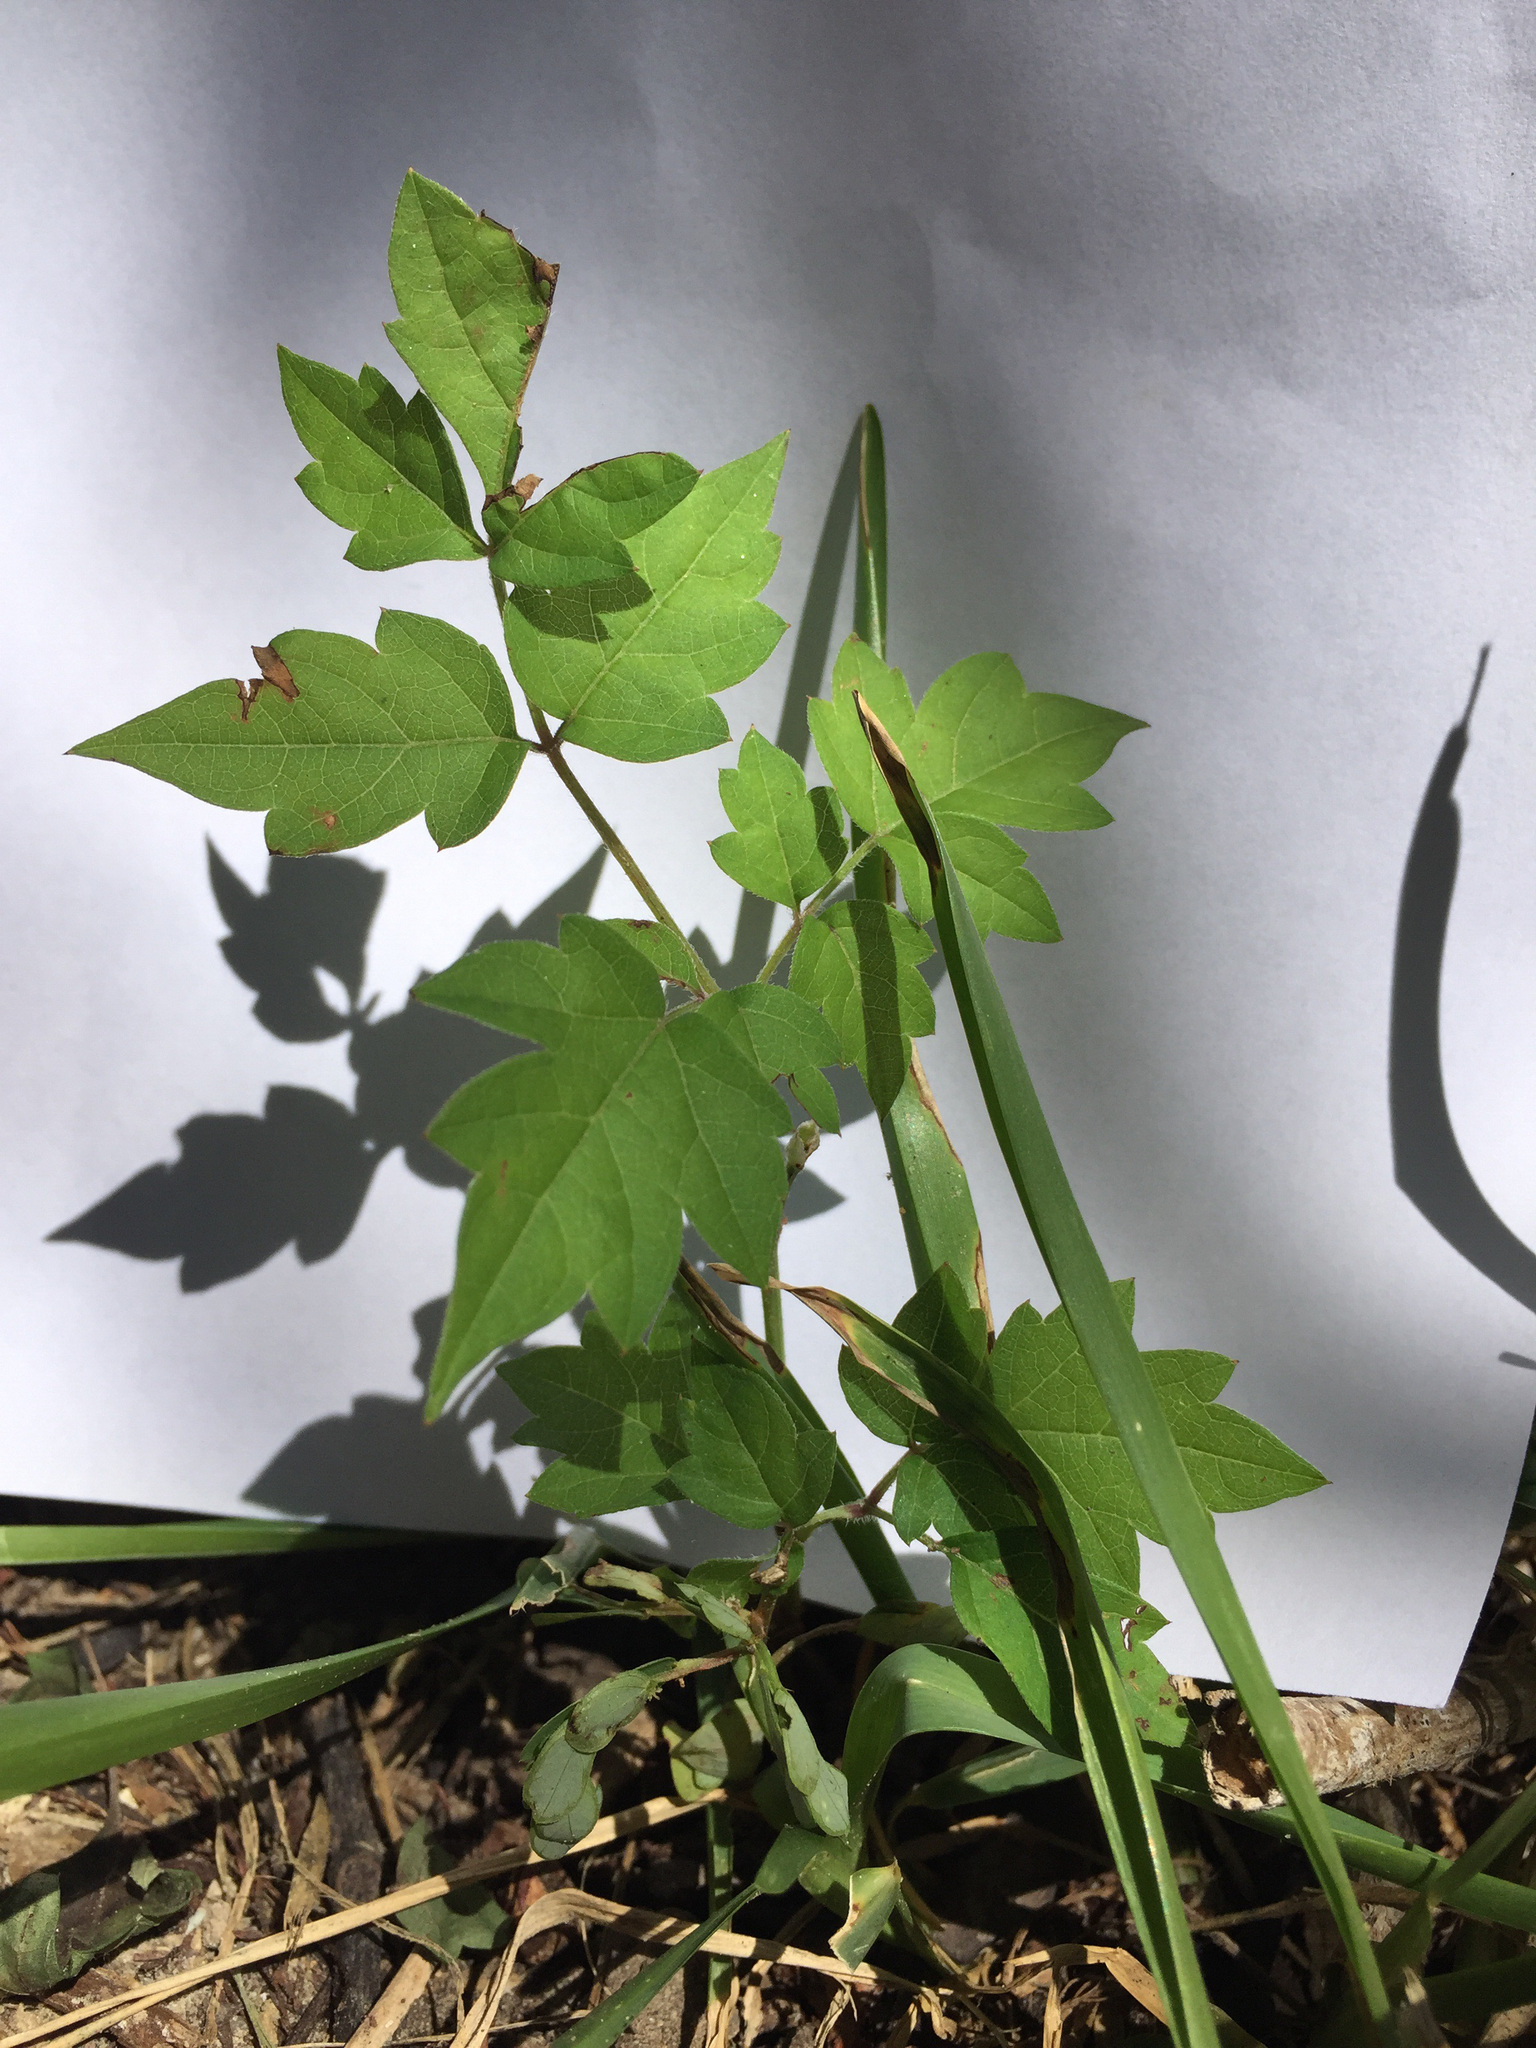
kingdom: Plantae
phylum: Tracheophyta
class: Magnoliopsida
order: Vitales
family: Vitaceae
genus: Nekemias
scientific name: Nekemias arborea
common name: Peppervine
